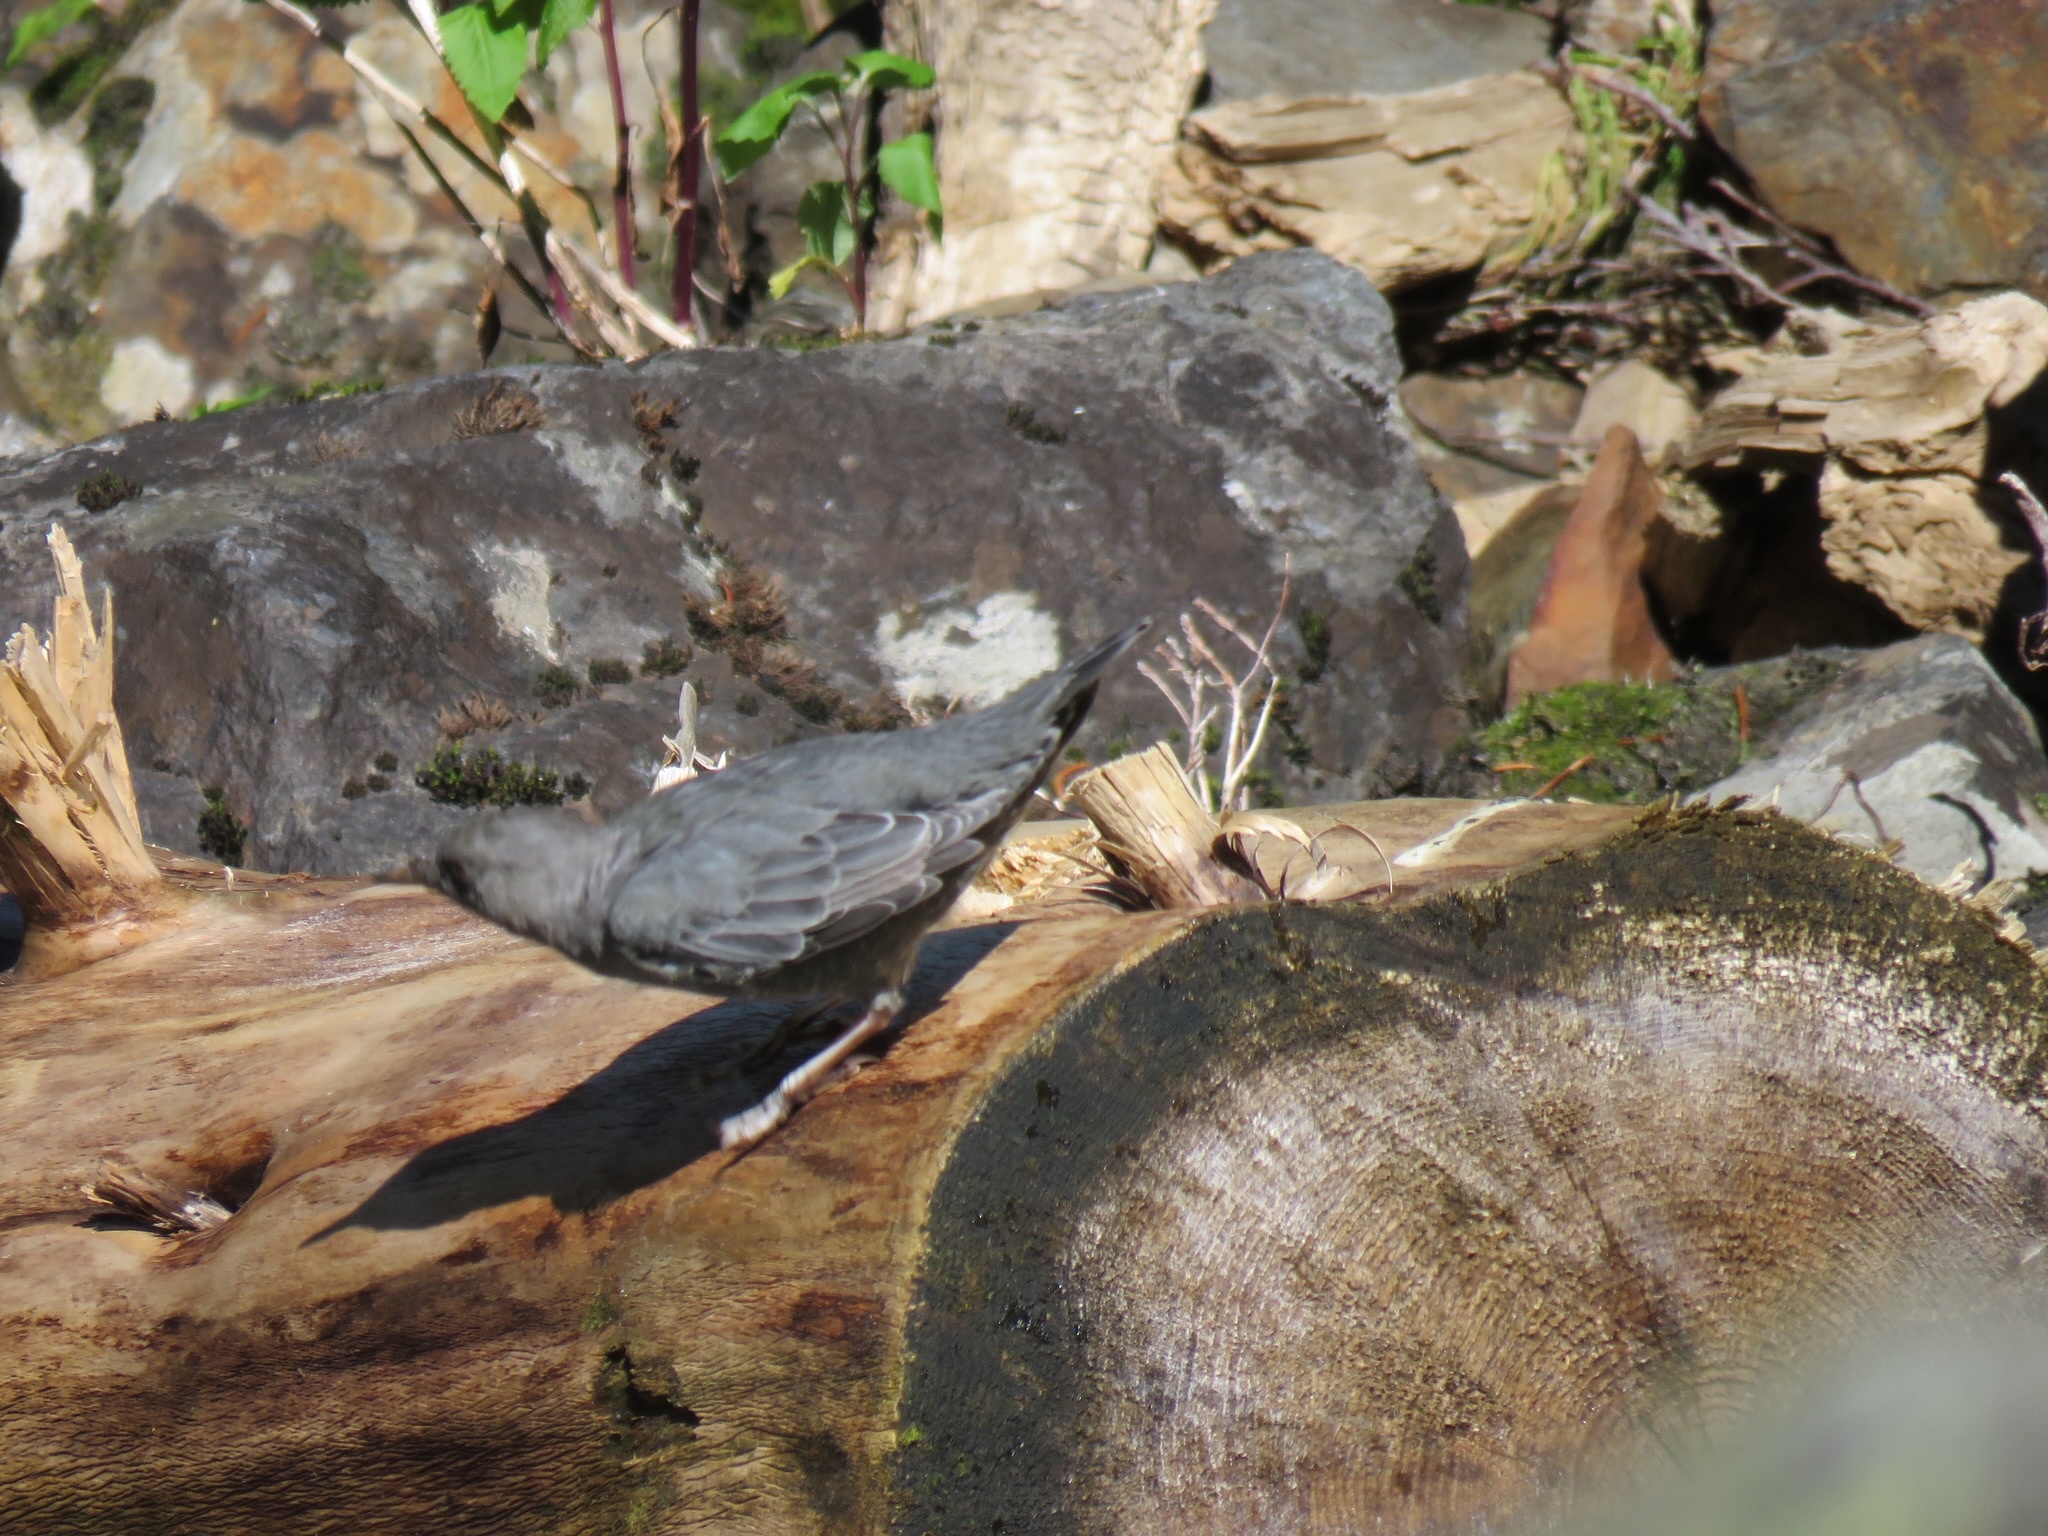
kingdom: Animalia
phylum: Chordata
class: Aves
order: Passeriformes
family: Cinclidae
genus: Cinclus
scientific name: Cinclus mexicanus
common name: American dipper
